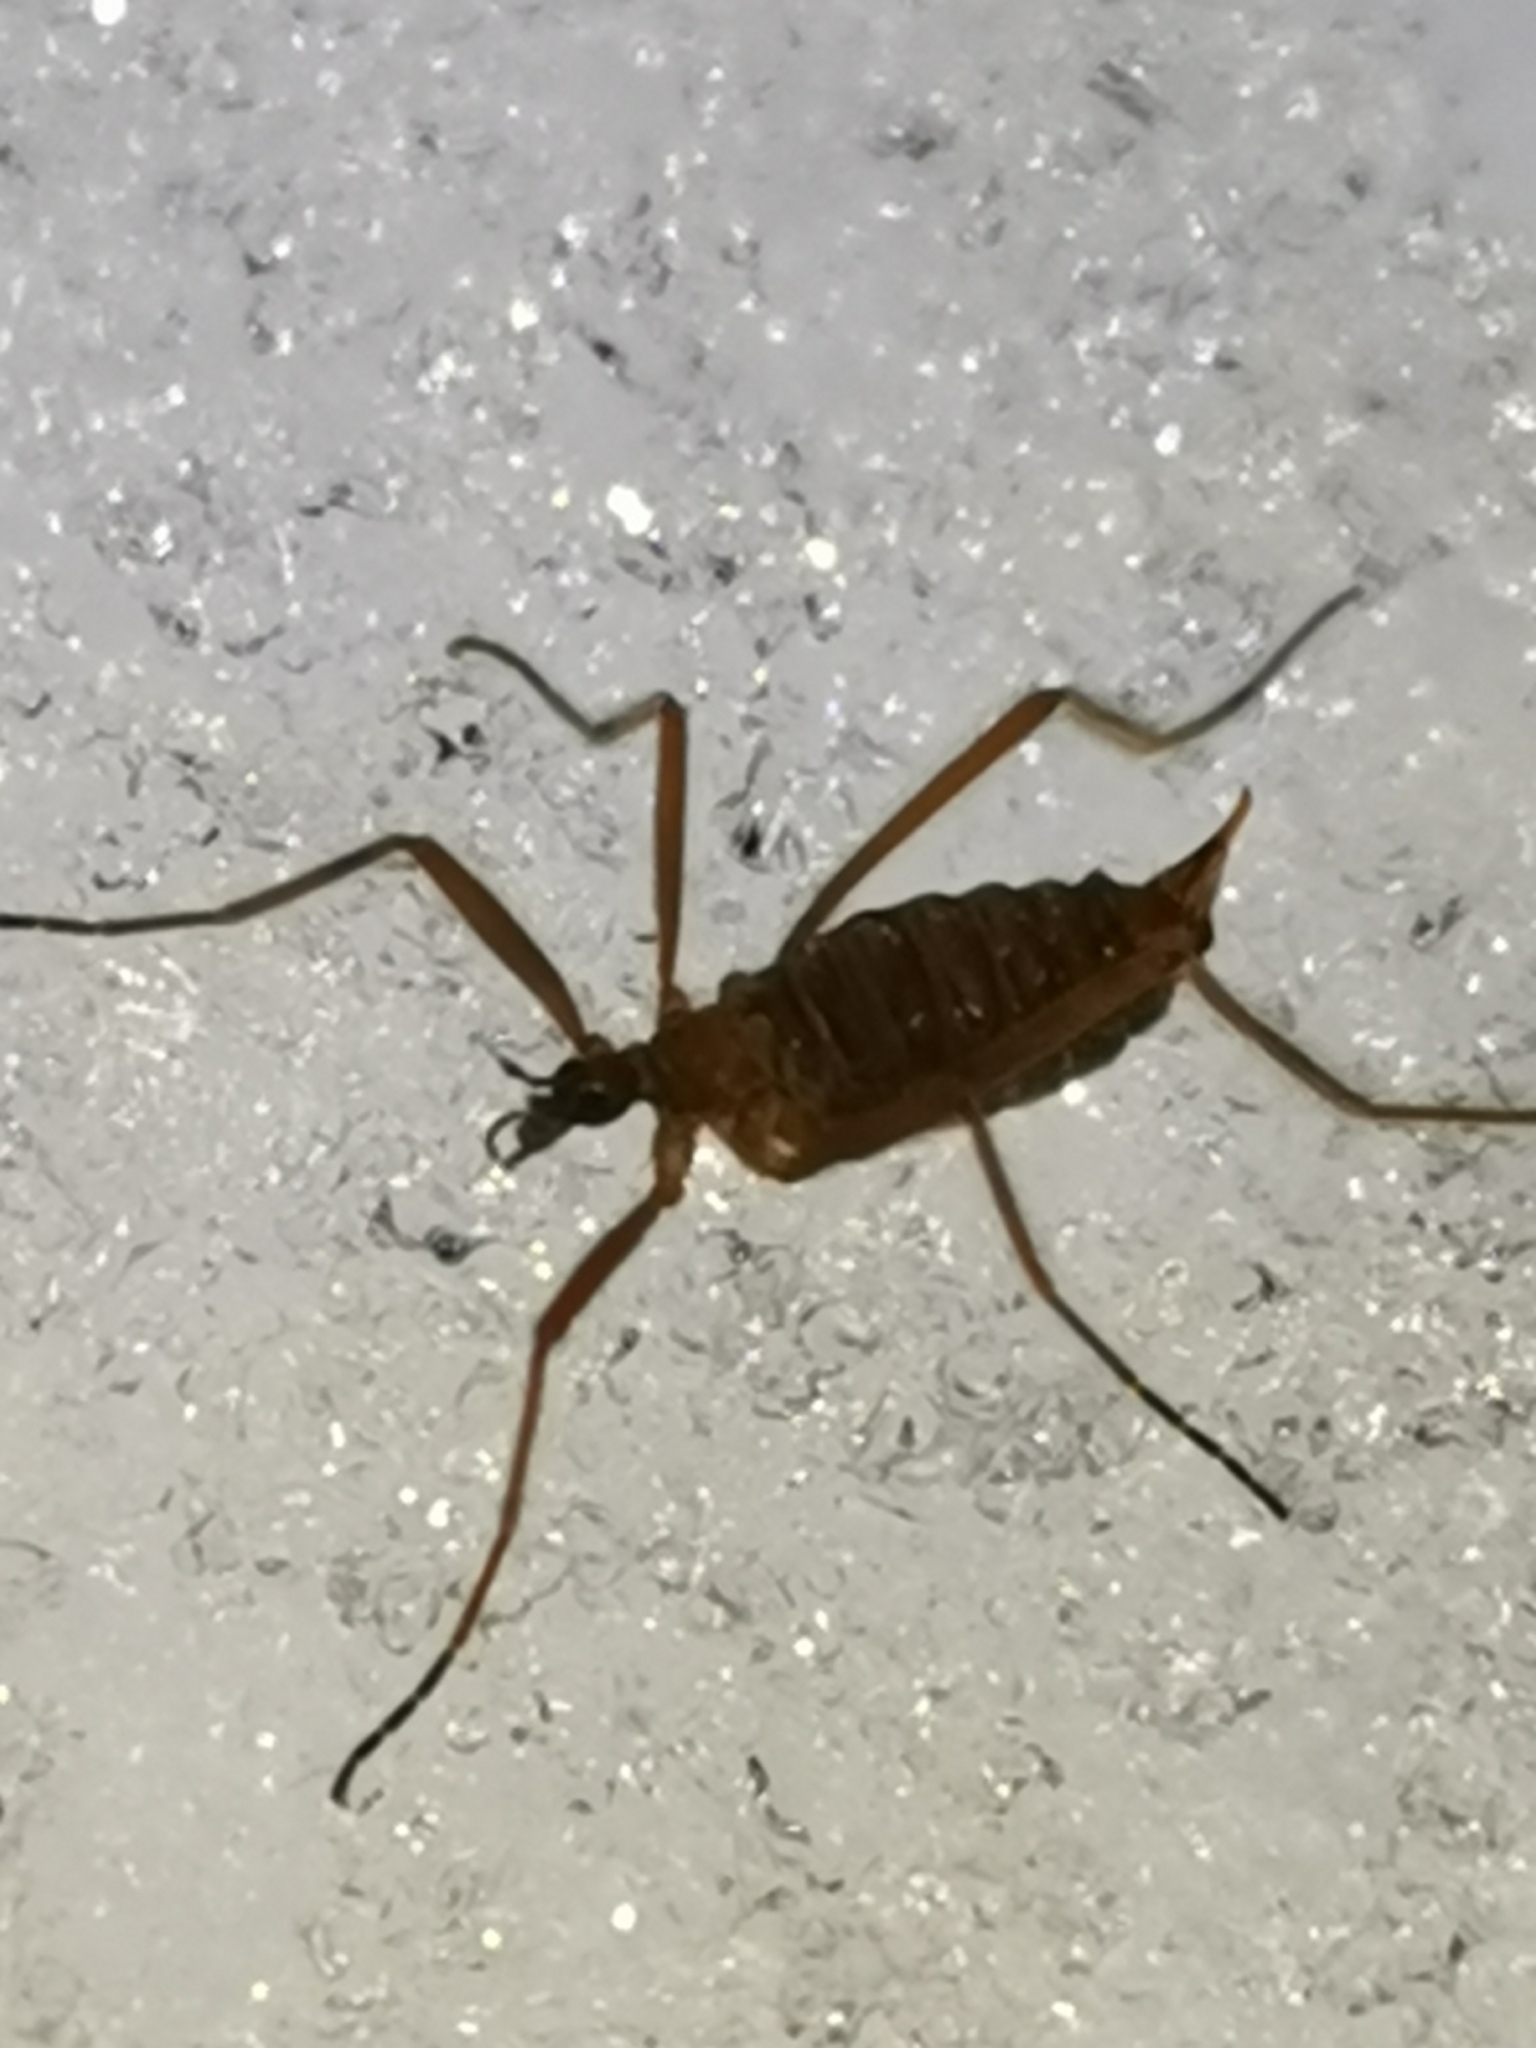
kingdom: Animalia
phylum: Arthropoda
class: Insecta
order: Diptera
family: Limoniidae
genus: Chionea
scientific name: Chionea lutescens
